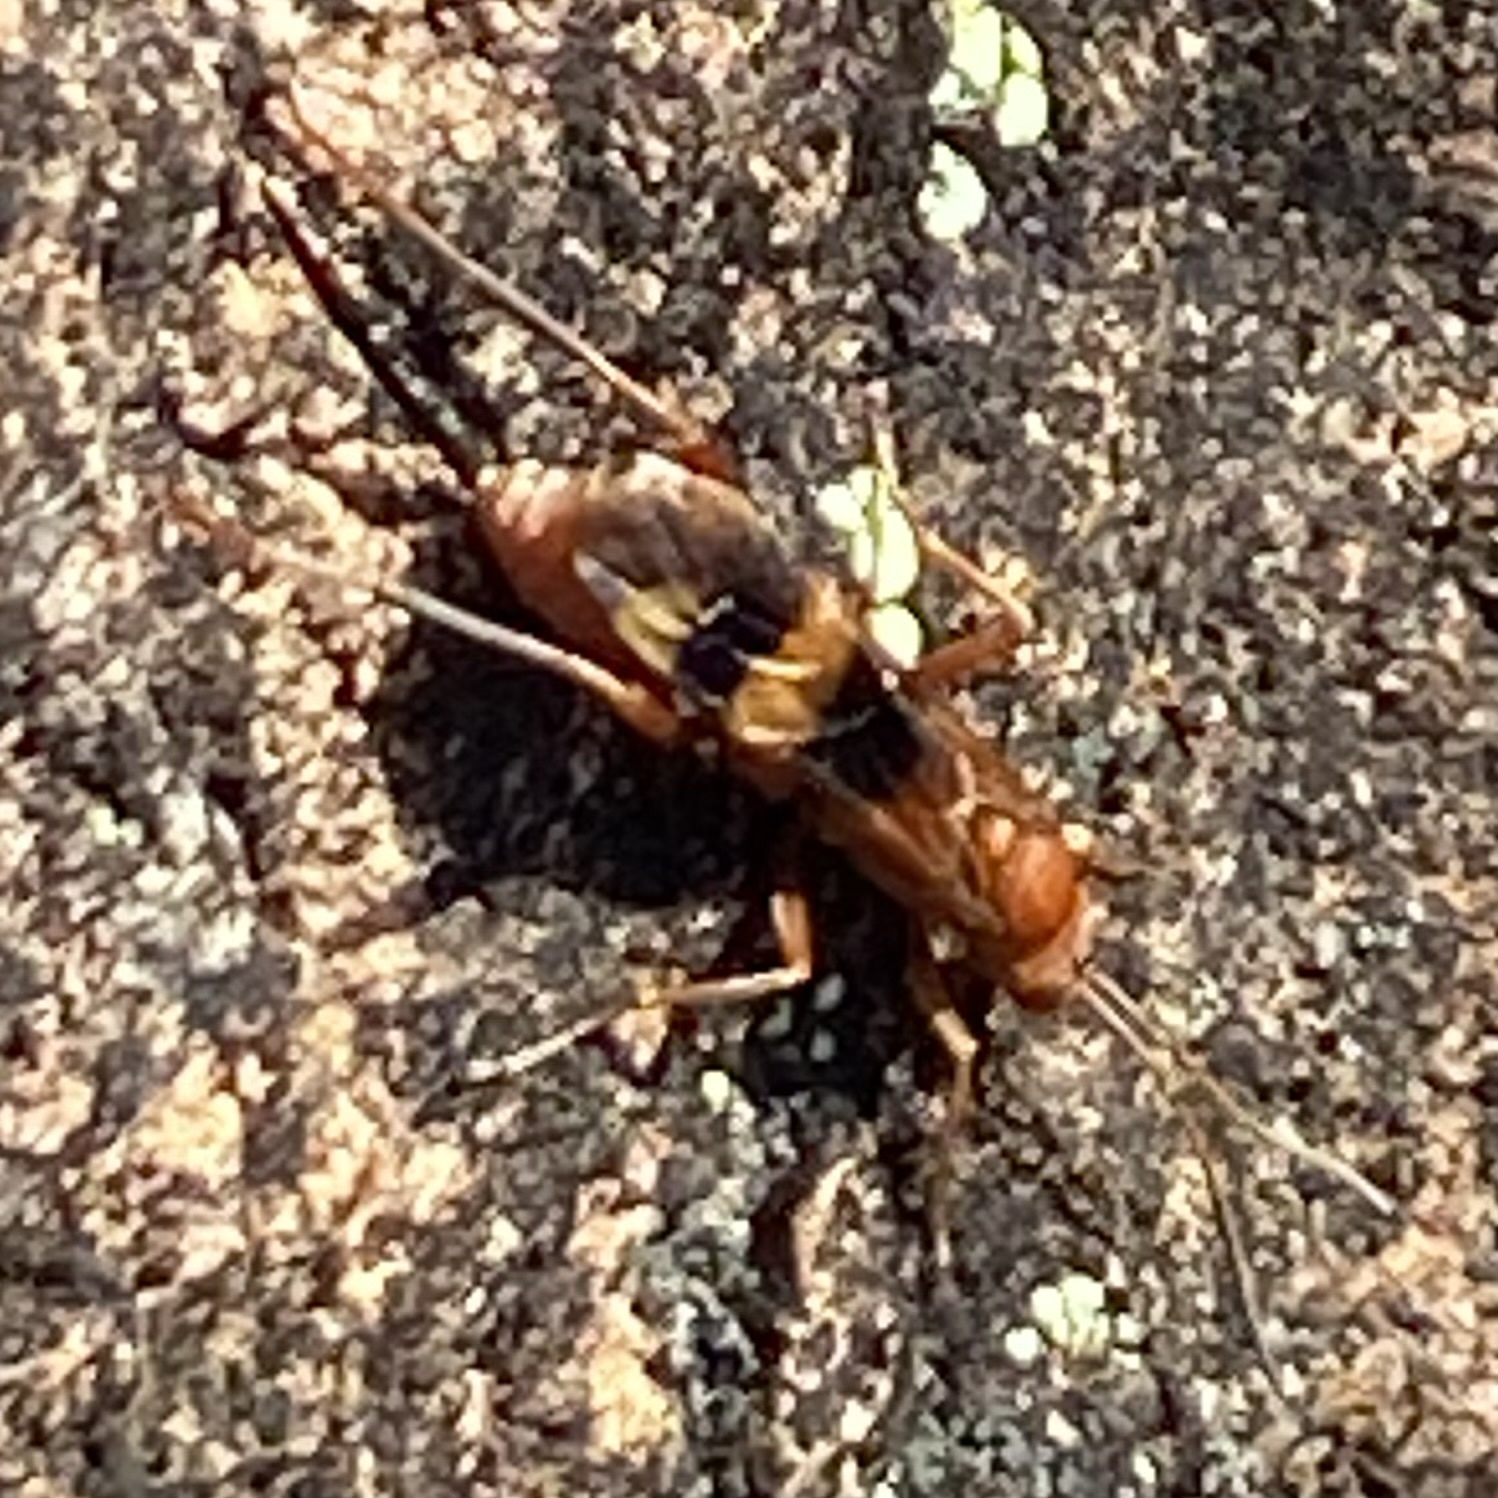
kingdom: Animalia
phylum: Arthropoda
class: Insecta
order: Hymenoptera
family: Ichneumonidae
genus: Compsocryptus
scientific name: Compsocryptus texensis
